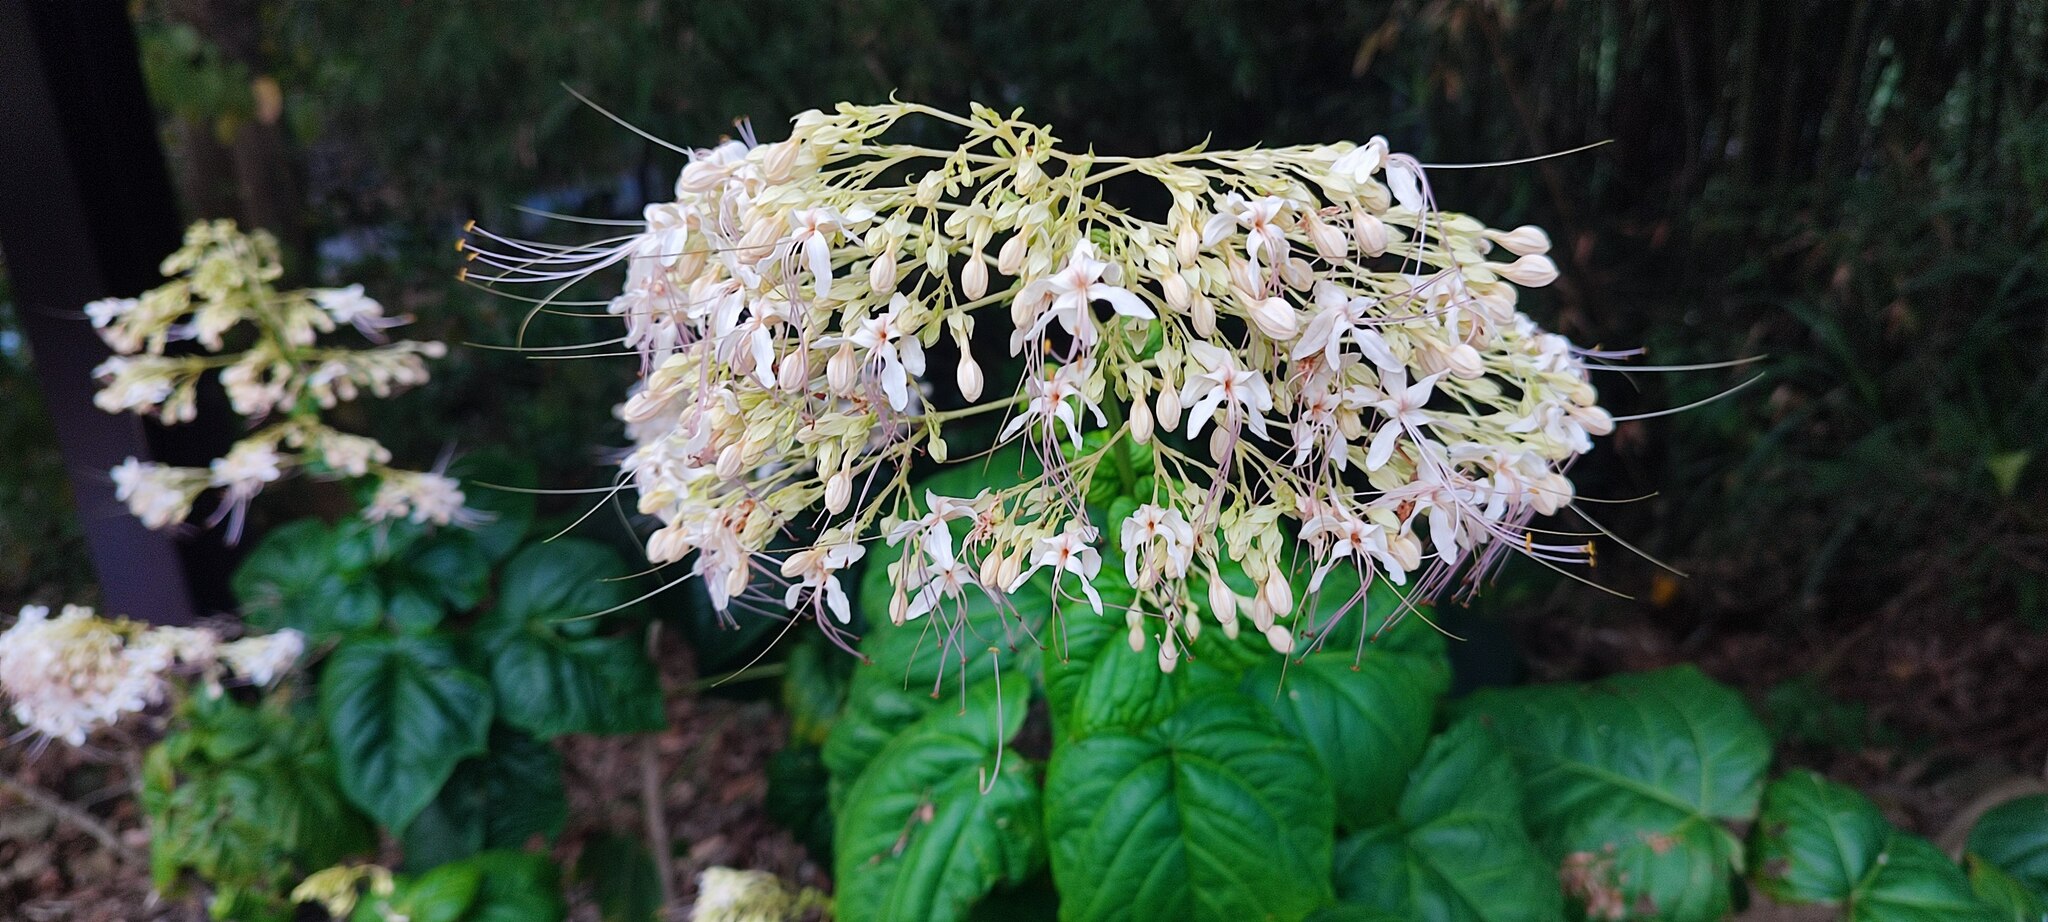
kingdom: Plantae
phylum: Tracheophyta
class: Magnoliopsida
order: Lamiales
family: Lamiaceae
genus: Clerodendrum
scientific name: Clerodendrum japonicum
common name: Japanese glorybower
